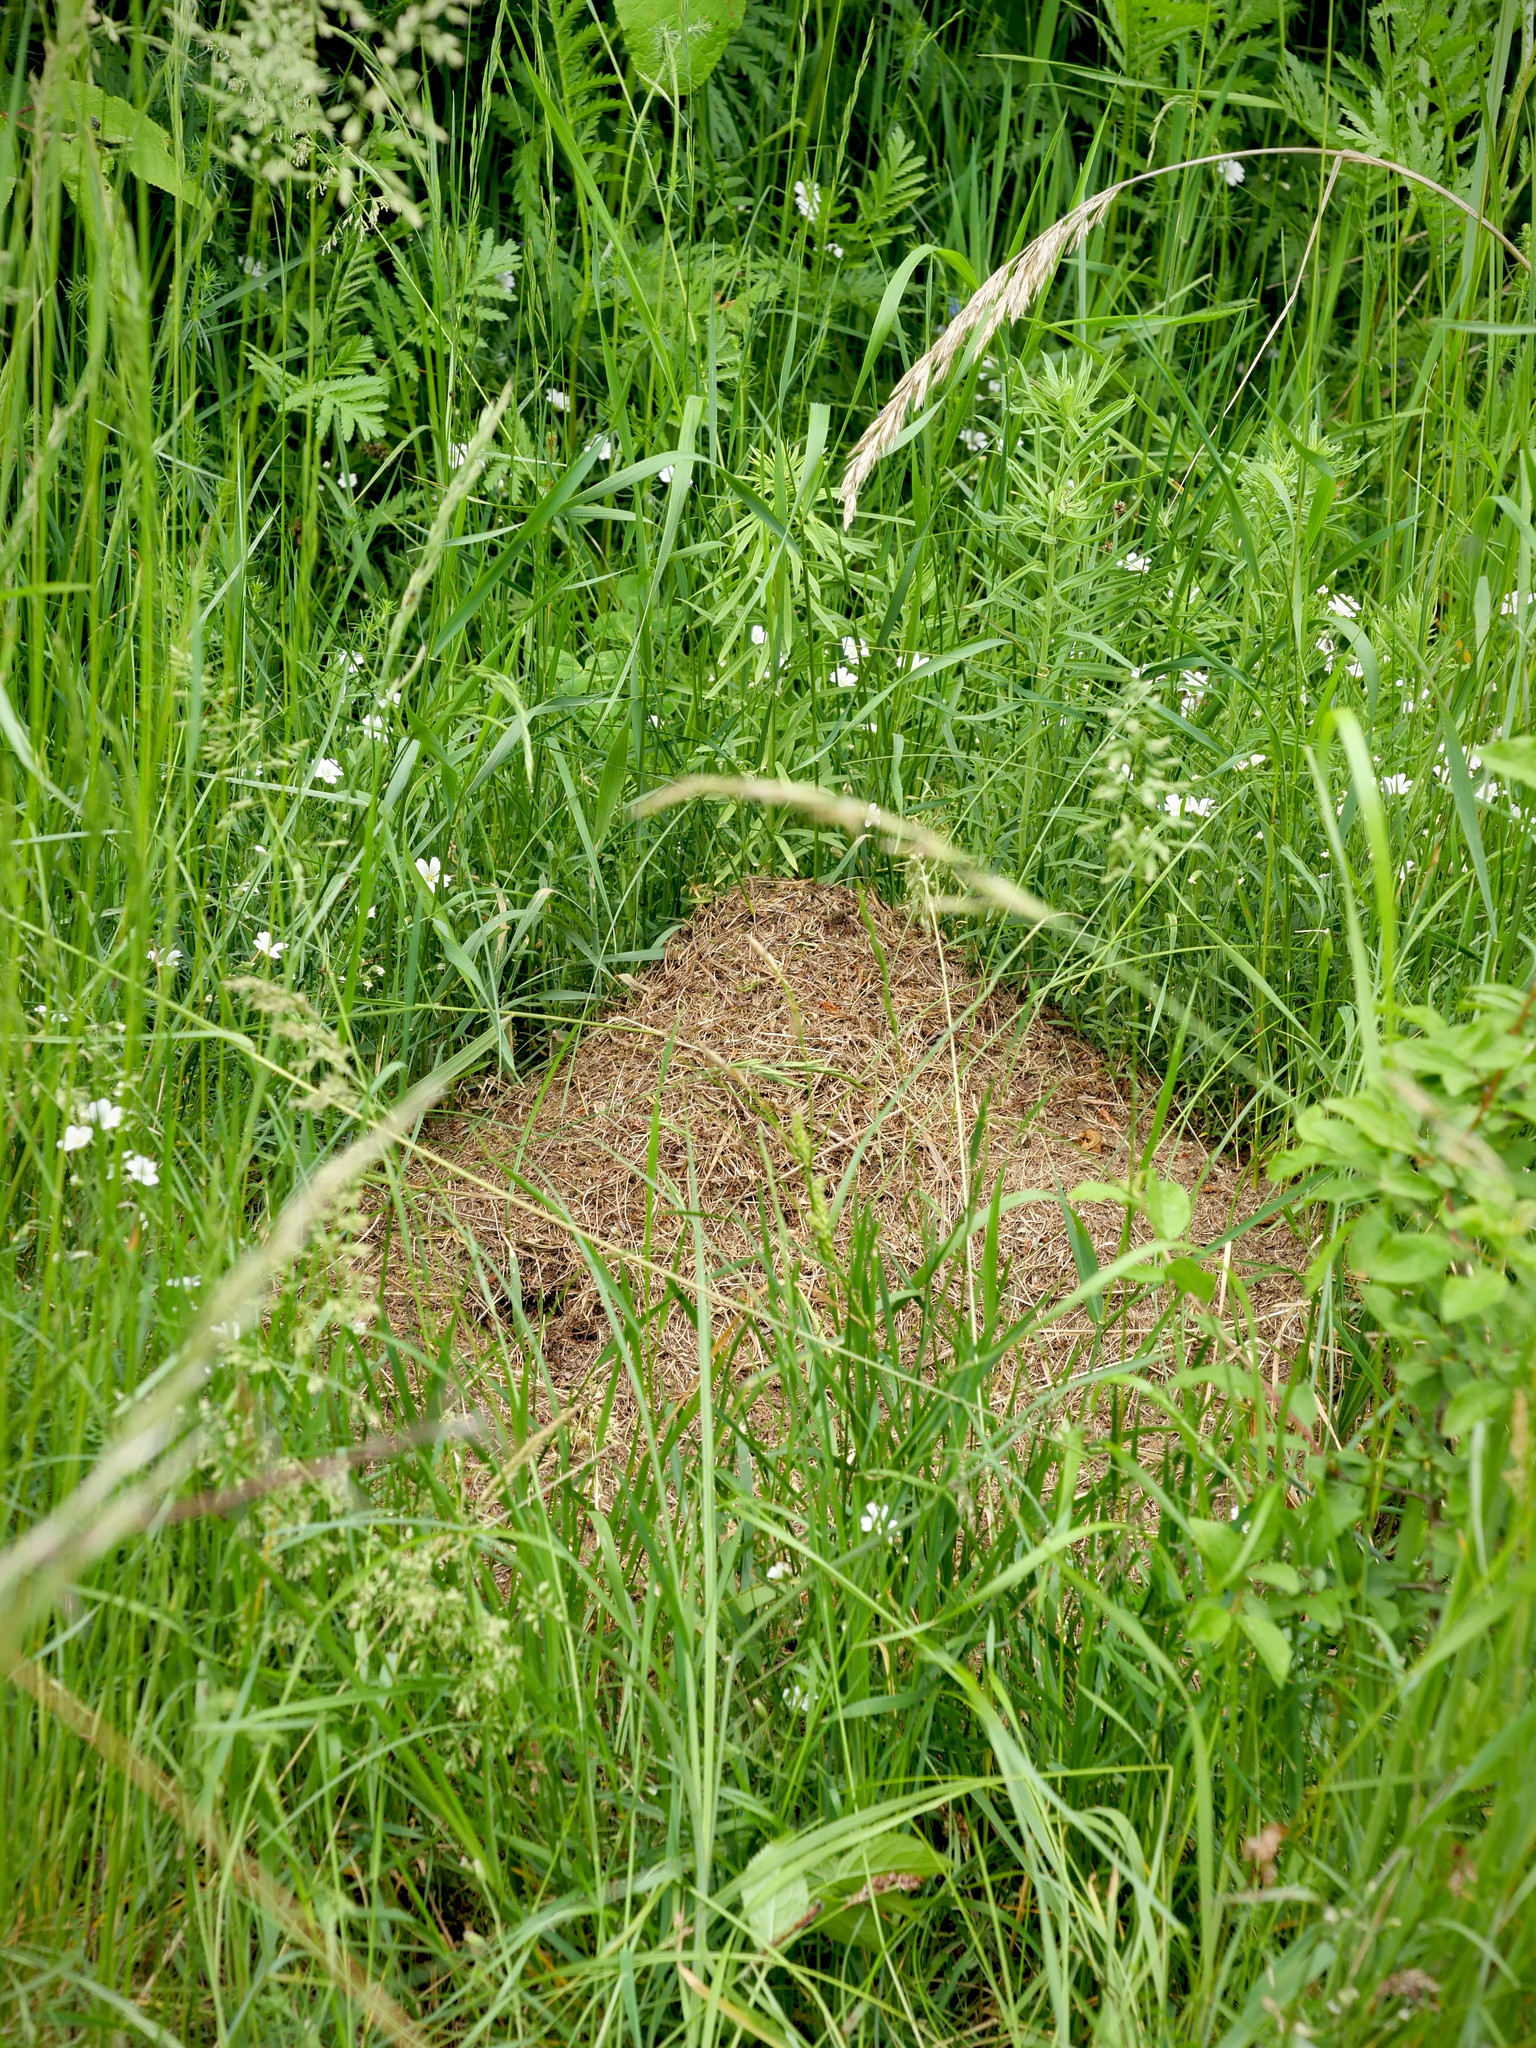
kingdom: Animalia
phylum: Arthropoda
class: Insecta
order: Hymenoptera
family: Formicidae
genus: Formica
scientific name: Formica exsecta
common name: Narrow headed ant
